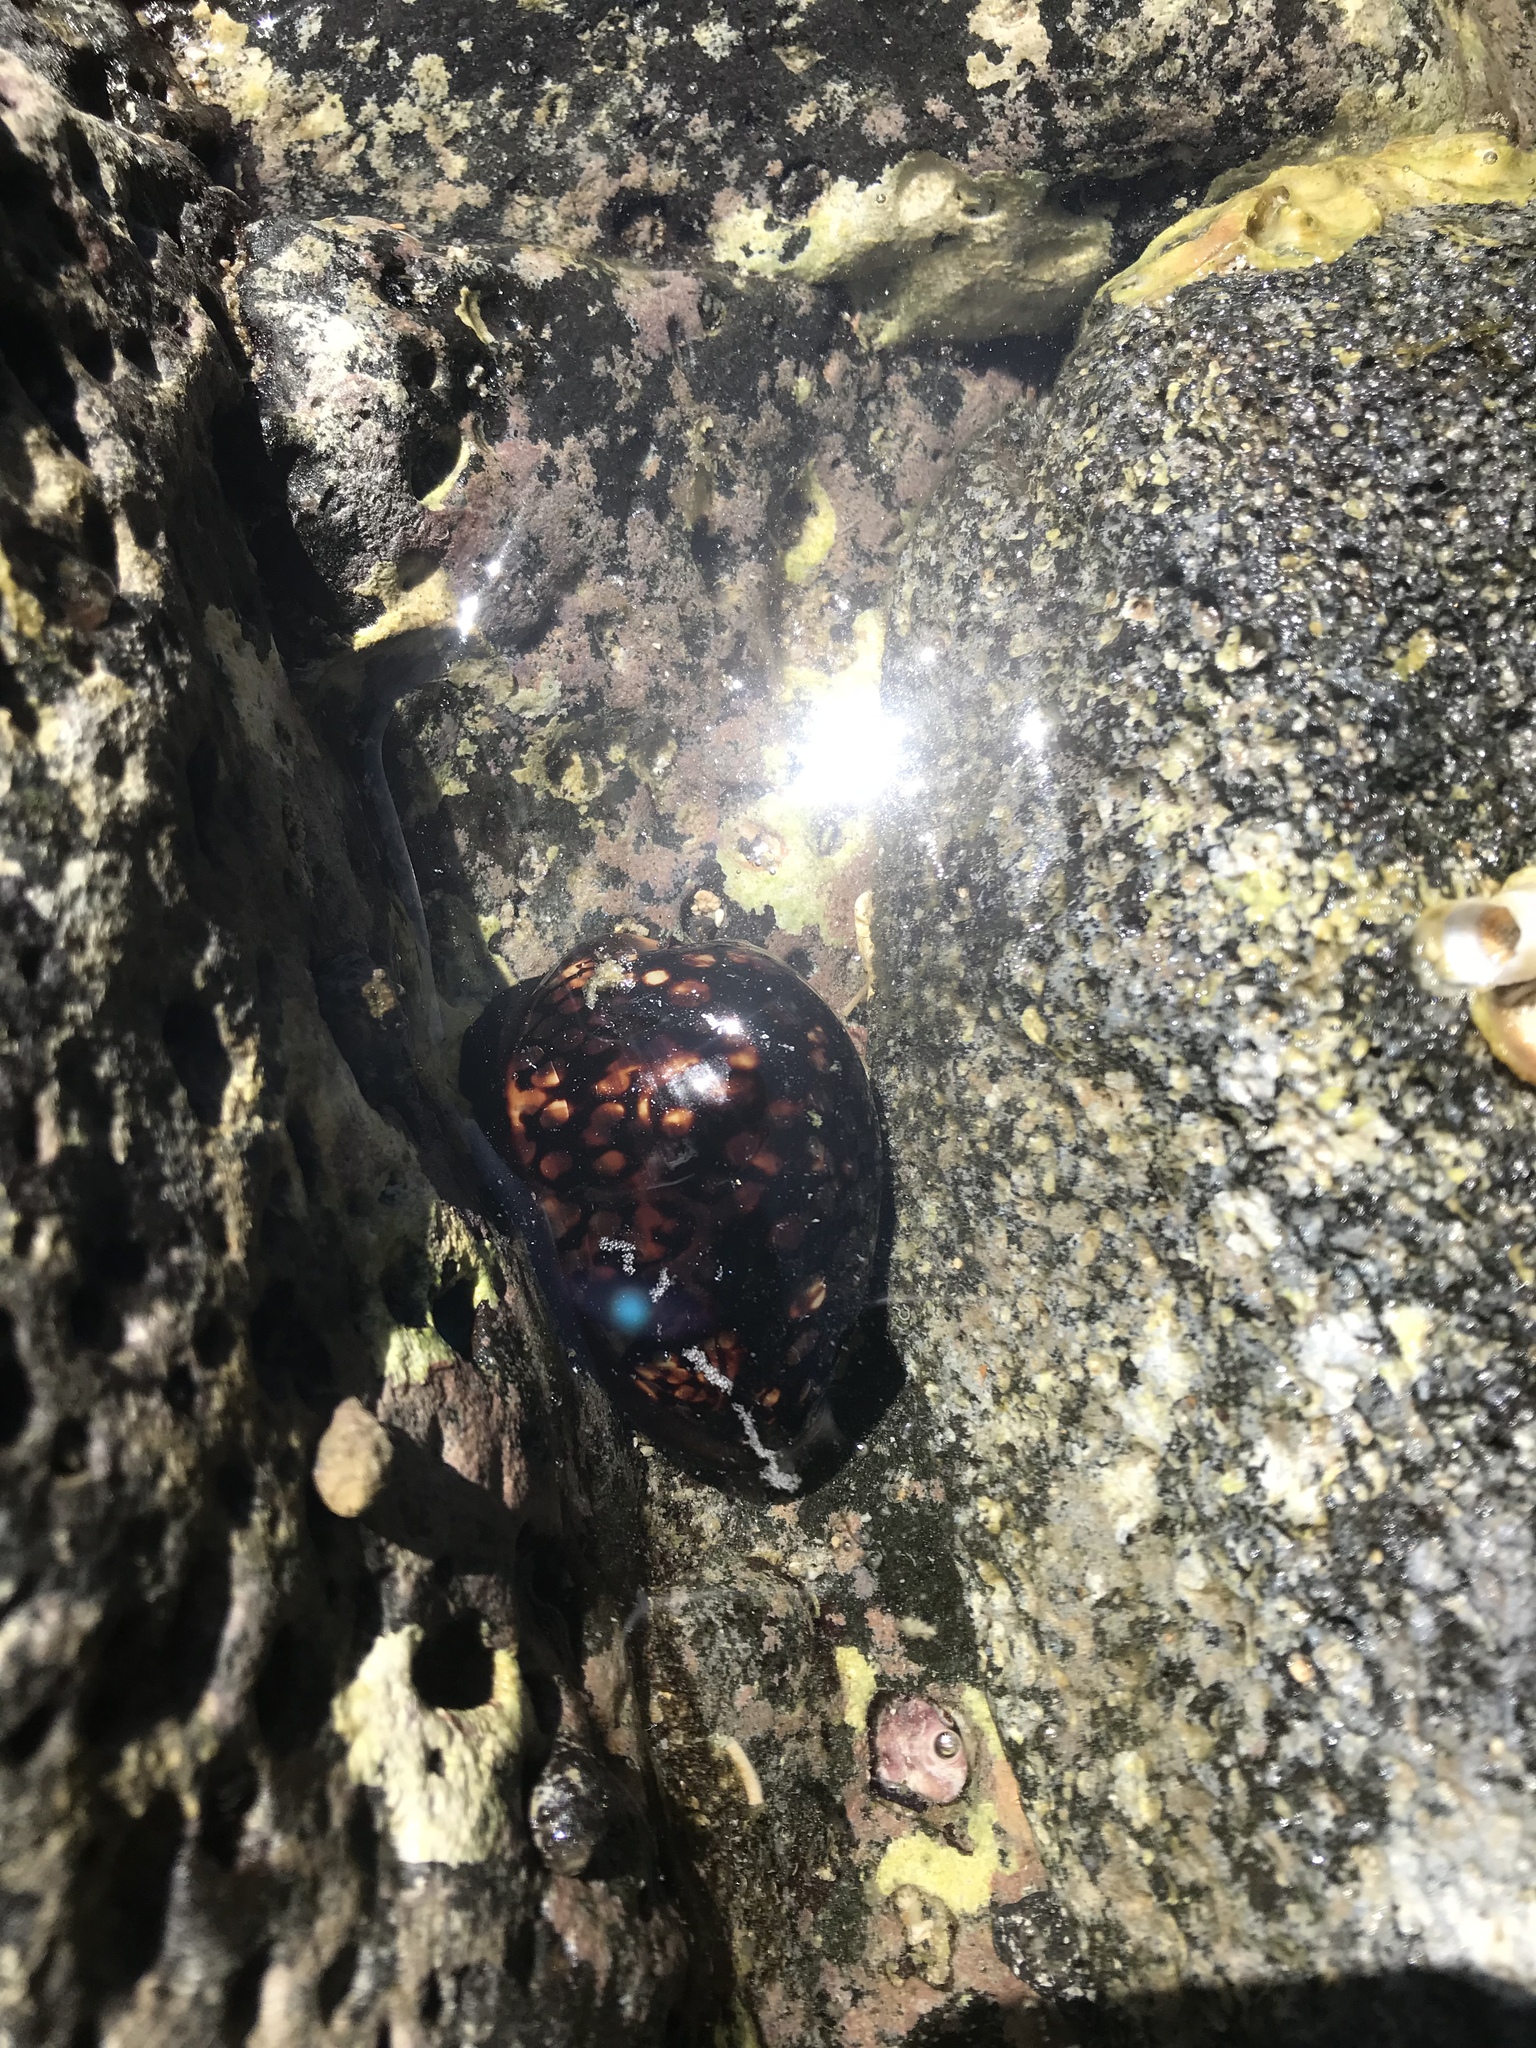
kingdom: Animalia
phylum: Mollusca
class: Gastropoda
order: Littorinimorpha
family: Cypraeidae
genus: Mauritia
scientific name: Mauritia mauritiana
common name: Hump-backed cowrie
